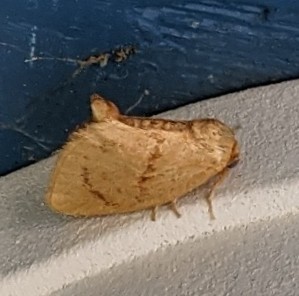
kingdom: Animalia
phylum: Arthropoda
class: Insecta
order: Lepidoptera
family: Limacodidae
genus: Tortricidia
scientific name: Tortricidia flexuosa
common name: Abbreviated button slug moth
